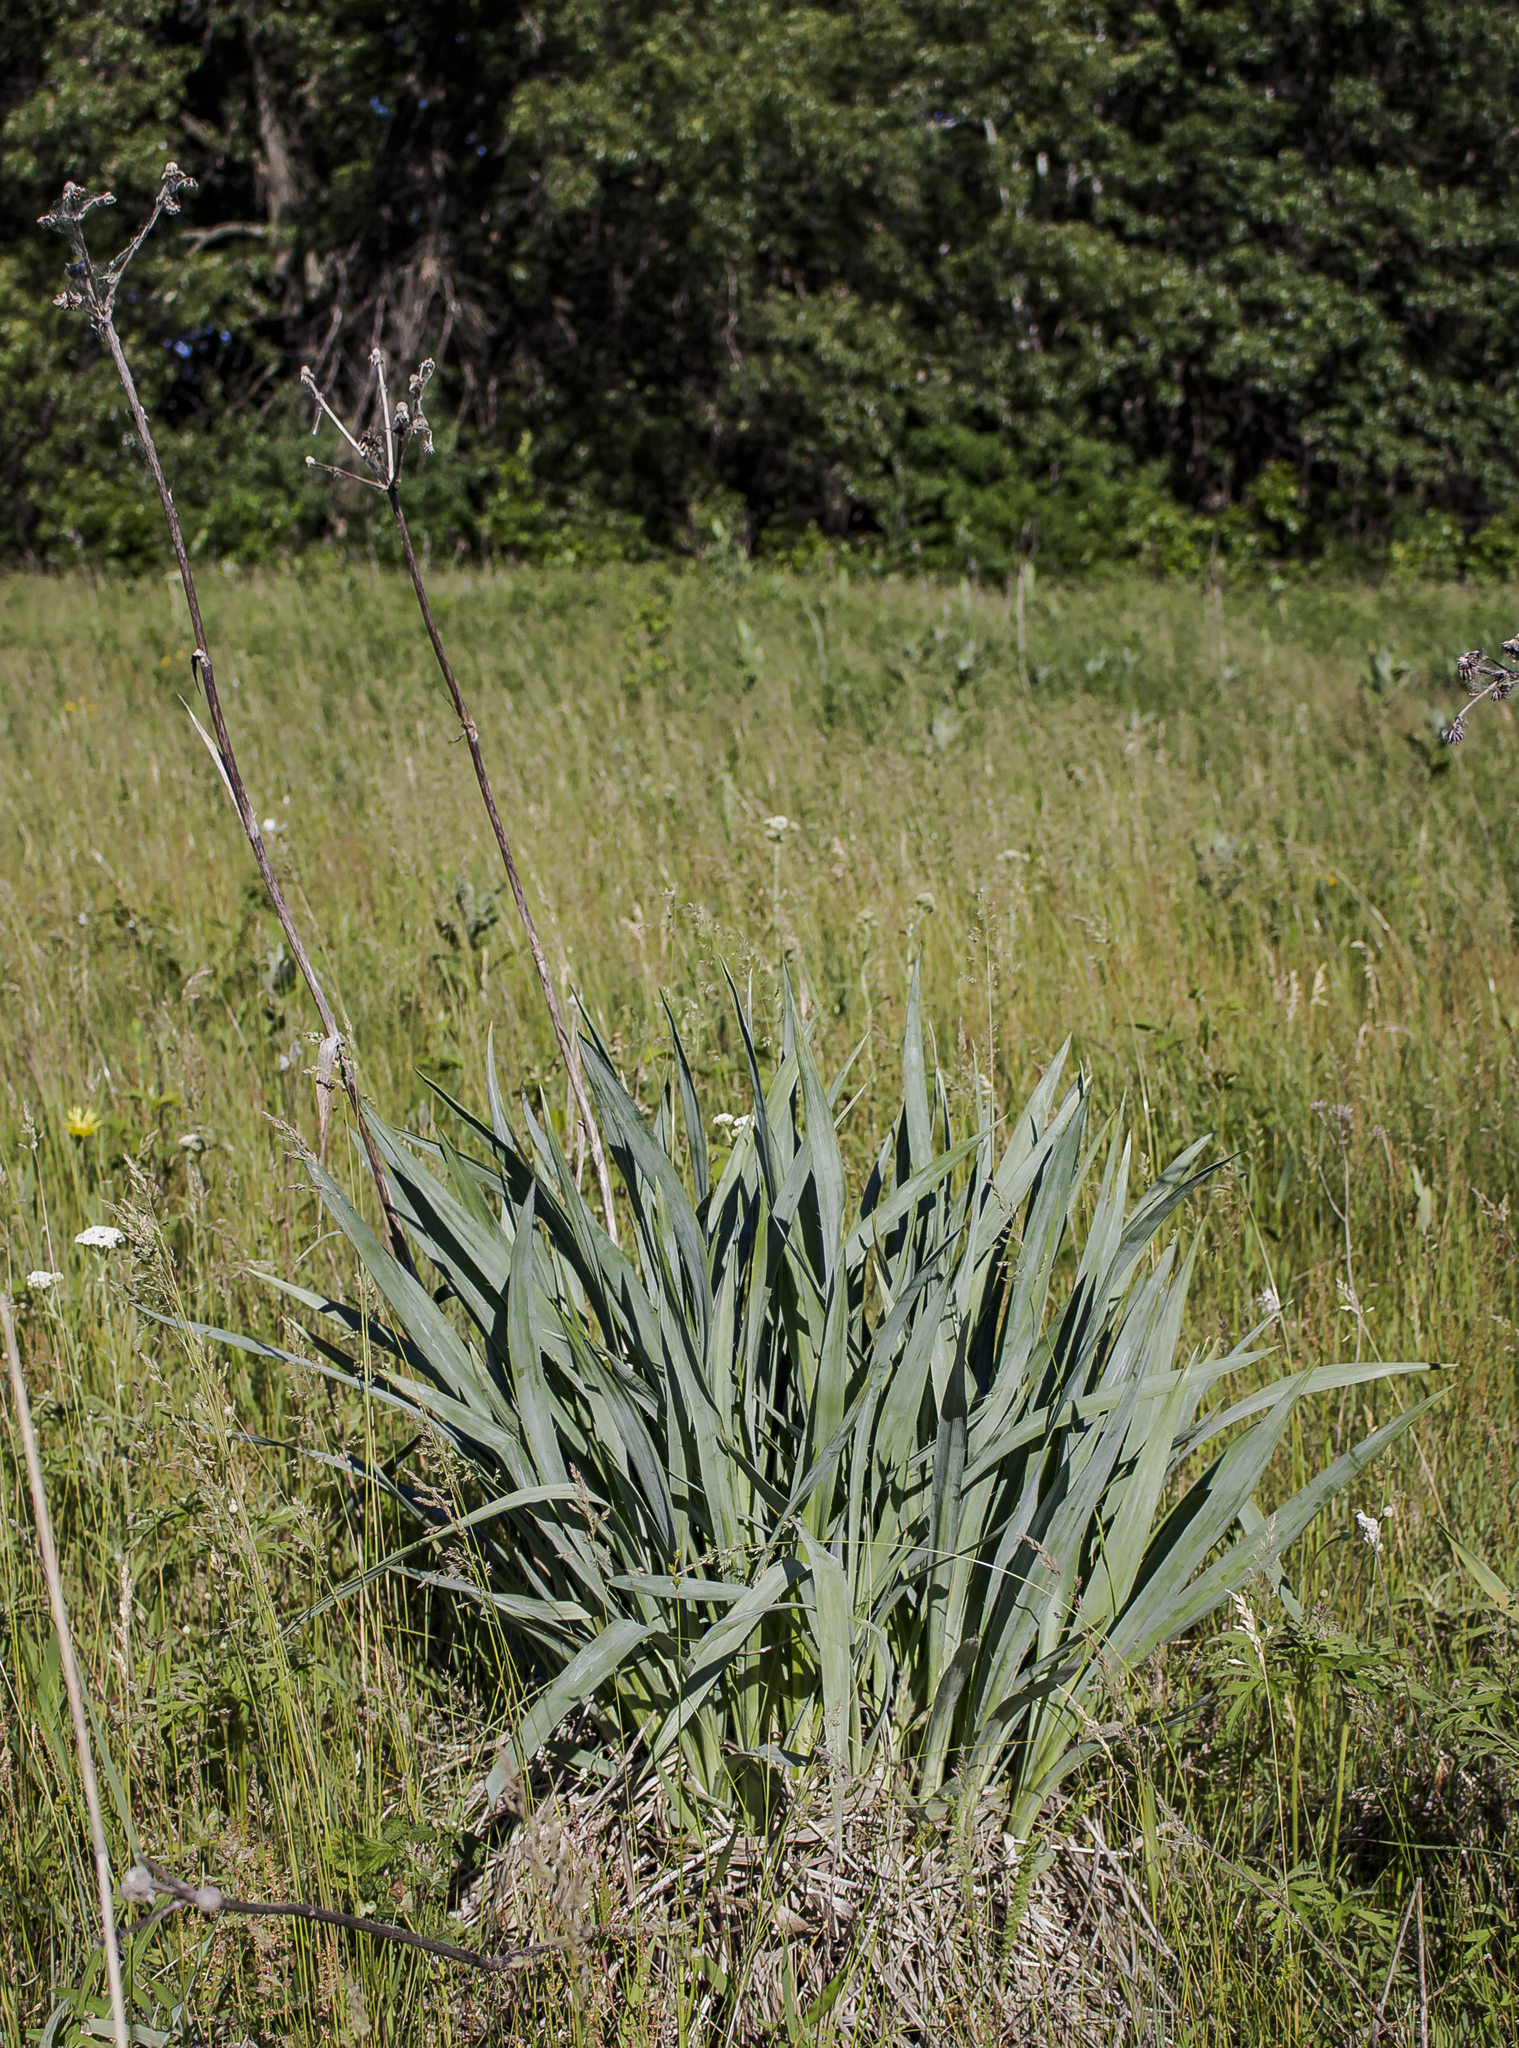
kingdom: Plantae
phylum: Tracheophyta
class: Magnoliopsida
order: Apiales
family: Apiaceae
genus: Eryngium
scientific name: Eryngium yuccifolium
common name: Button eryngo
